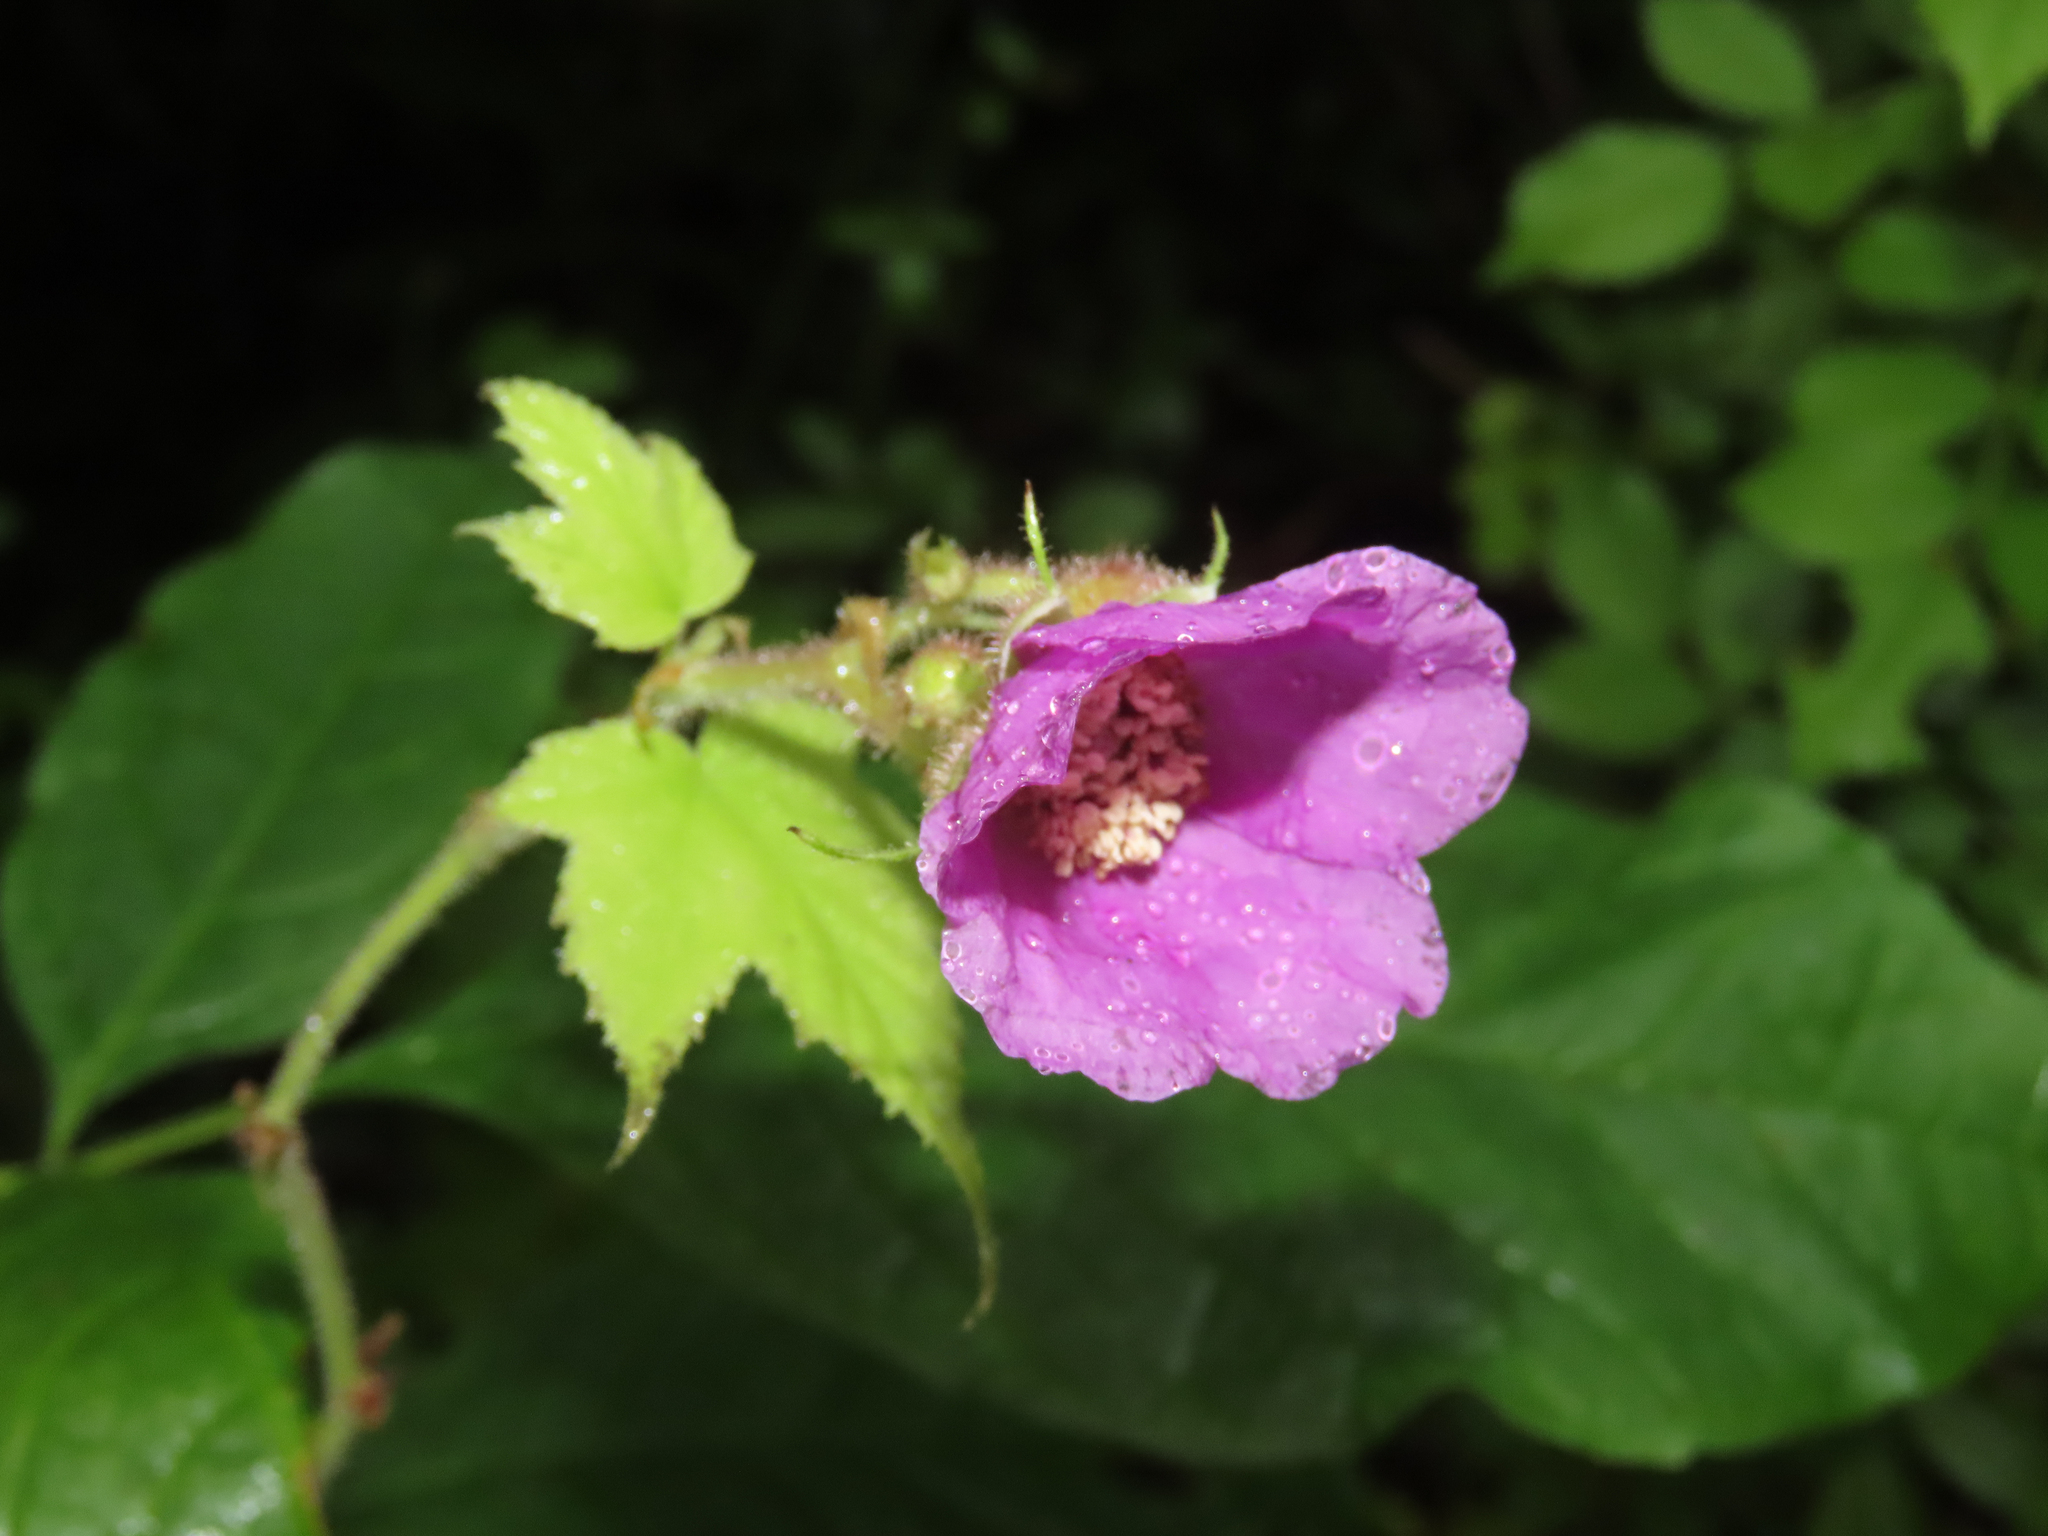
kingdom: Plantae
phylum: Tracheophyta
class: Magnoliopsida
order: Rosales
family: Rosaceae
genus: Rubus
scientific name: Rubus odoratus
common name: Purple-flowered raspberry
